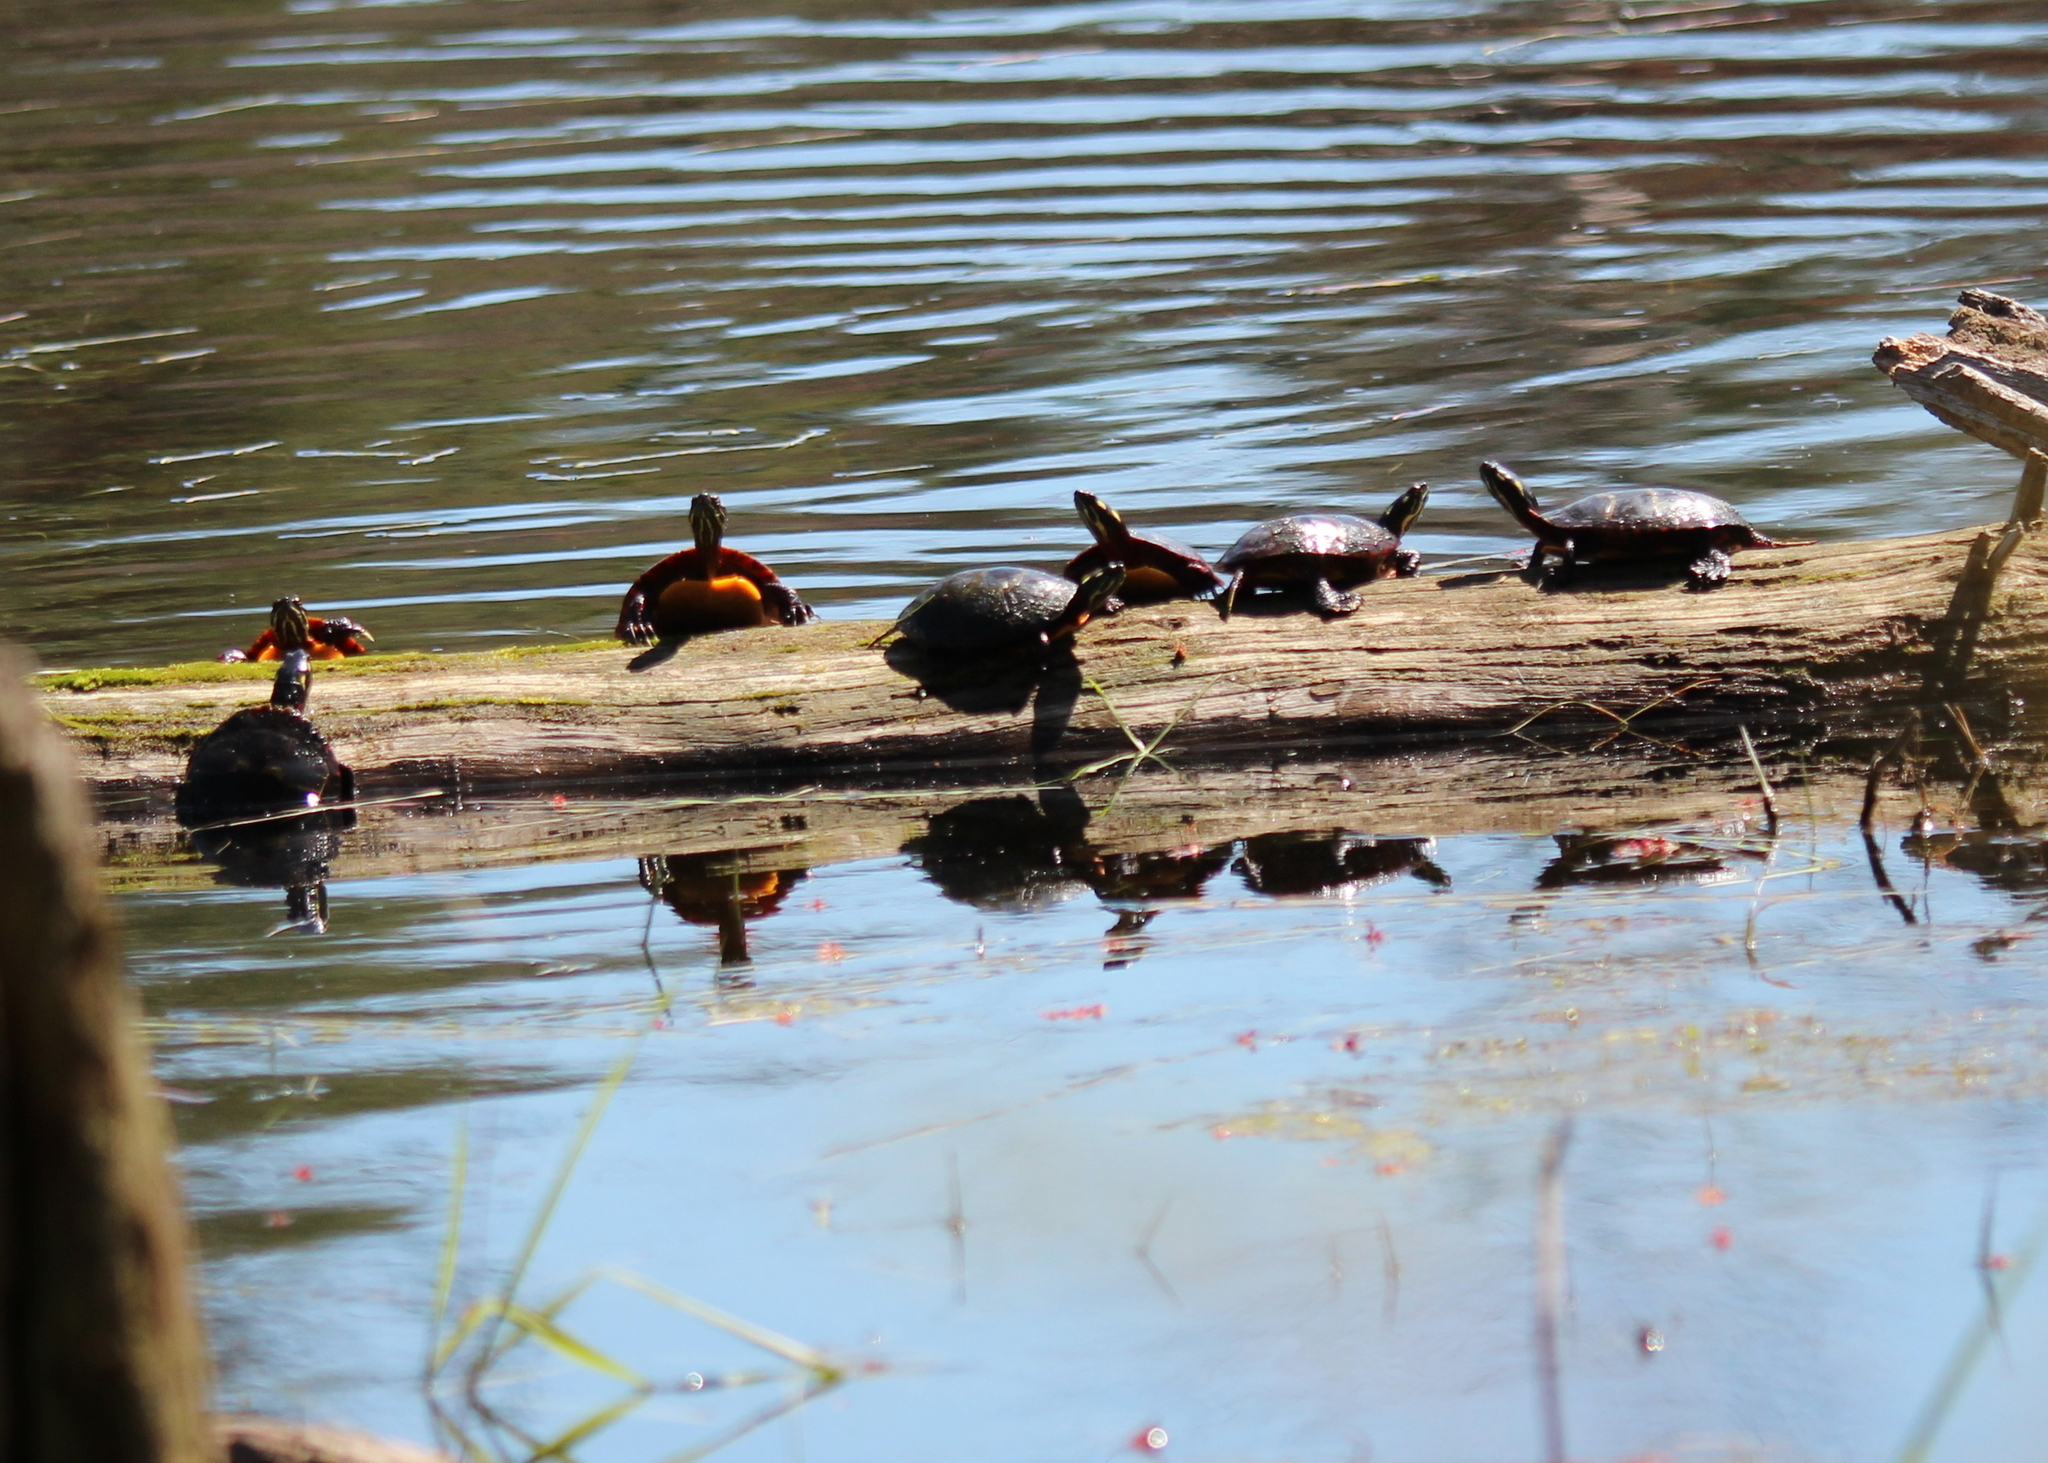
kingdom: Animalia
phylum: Chordata
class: Testudines
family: Emydidae
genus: Chrysemys
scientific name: Chrysemys picta
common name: Painted turtle
